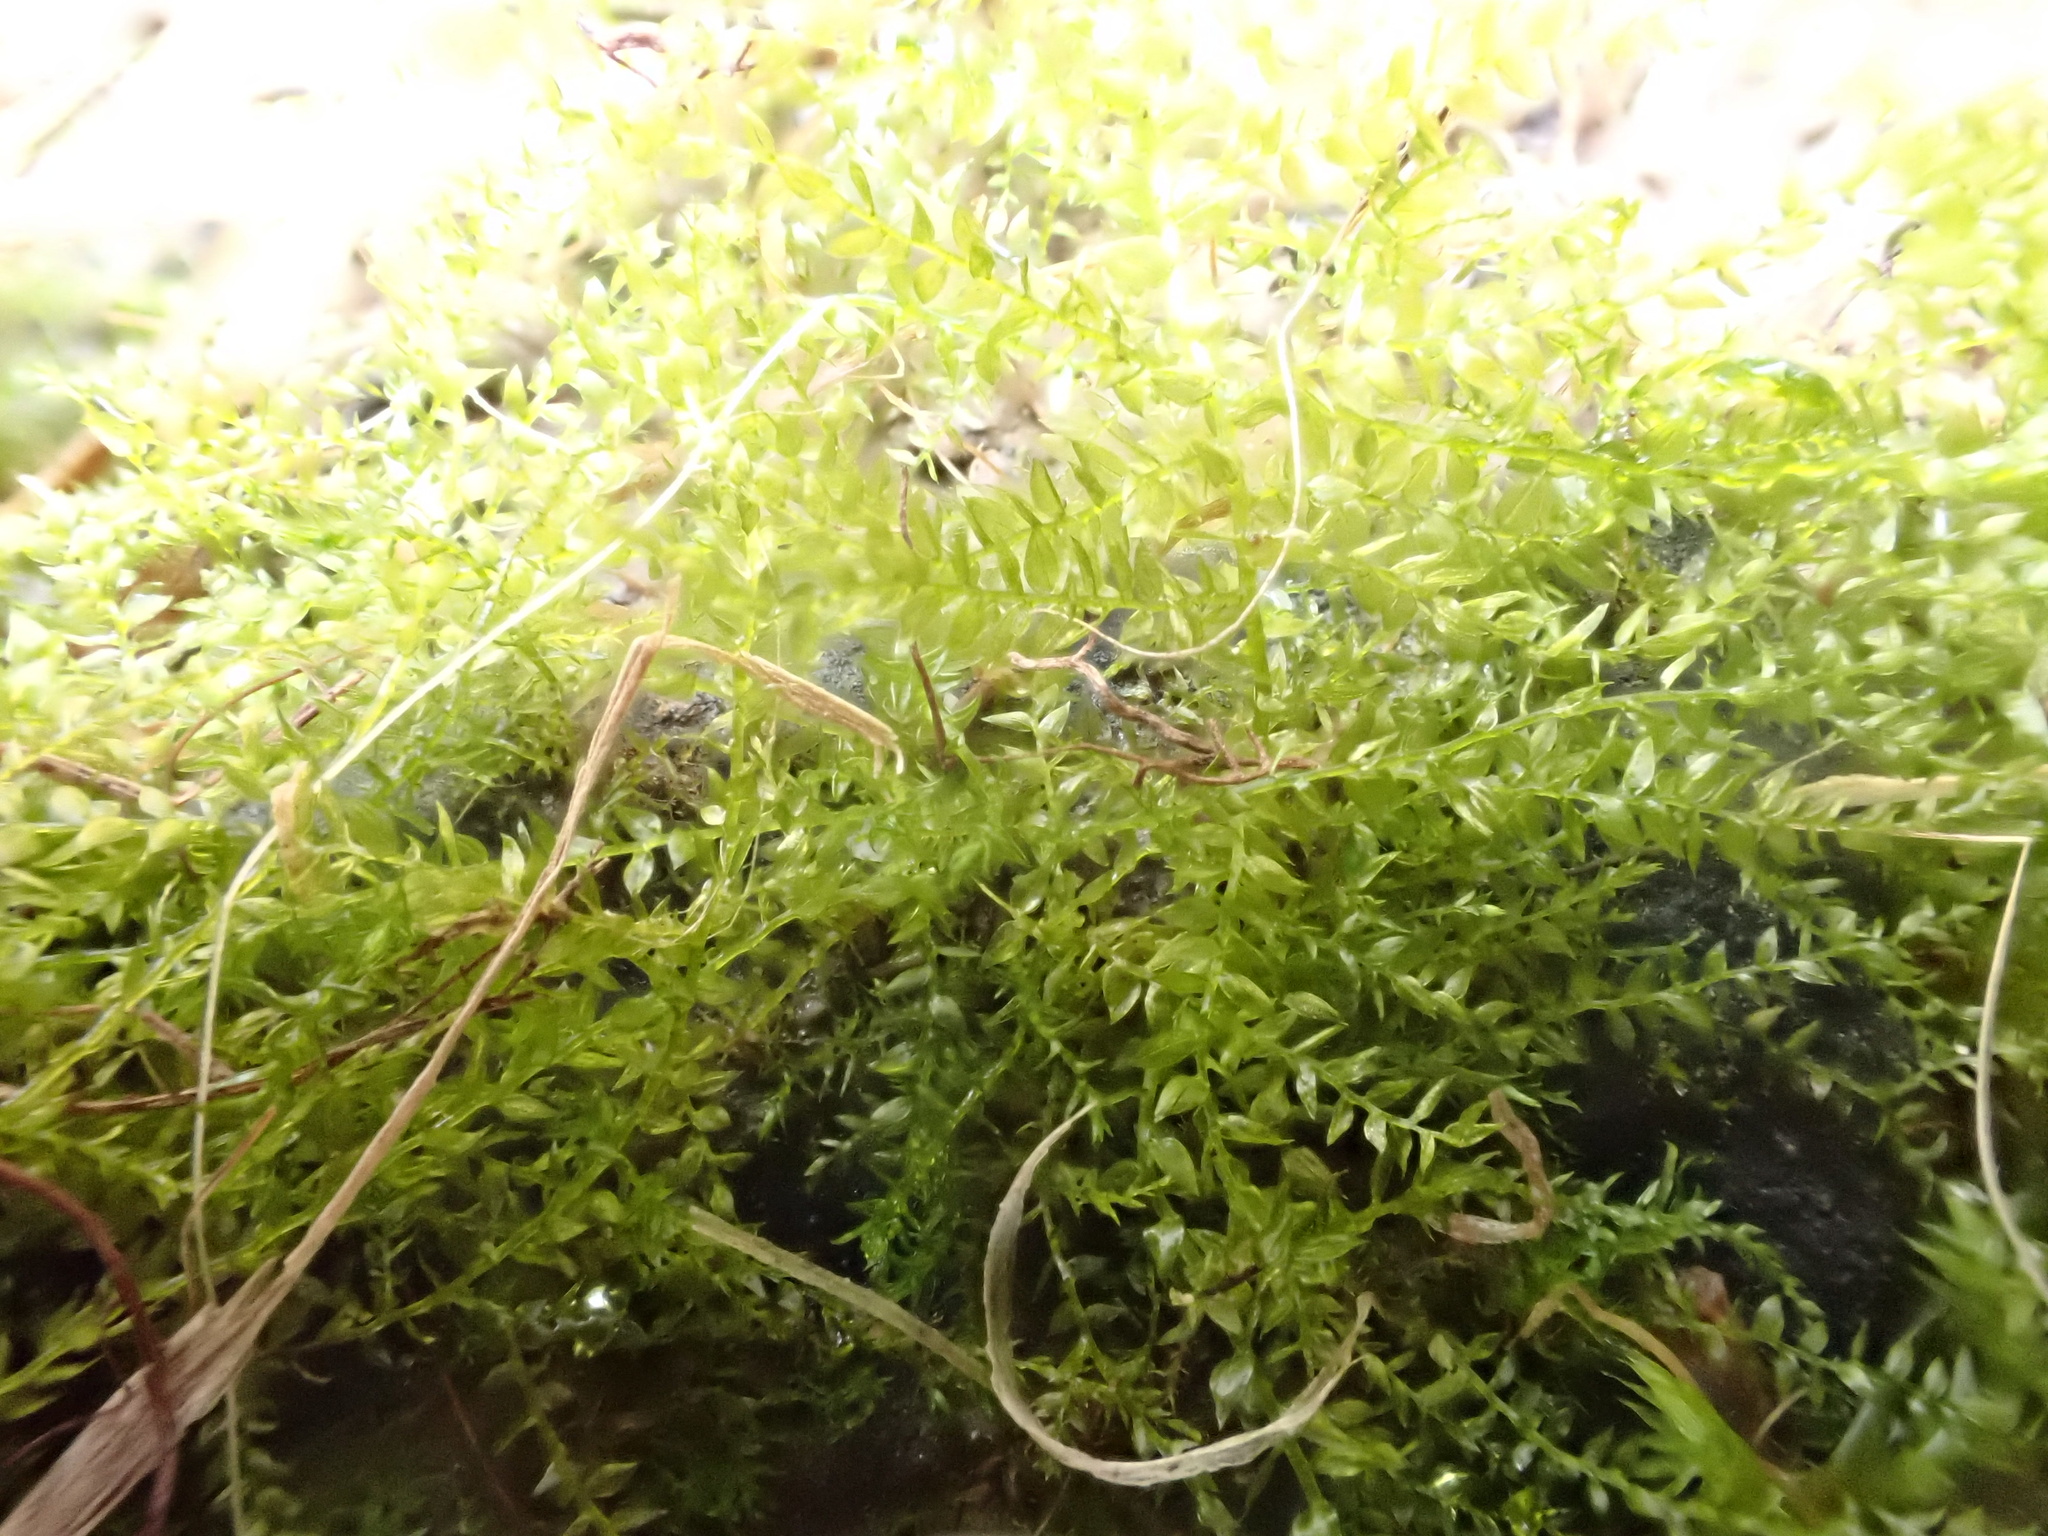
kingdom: Plantae
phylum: Bryophyta
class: Bryopsida
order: Hypnales
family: Brachytheciaceae
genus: Oxyrrhynchium
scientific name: Oxyrrhynchium hians
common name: Spreading beaked moss
